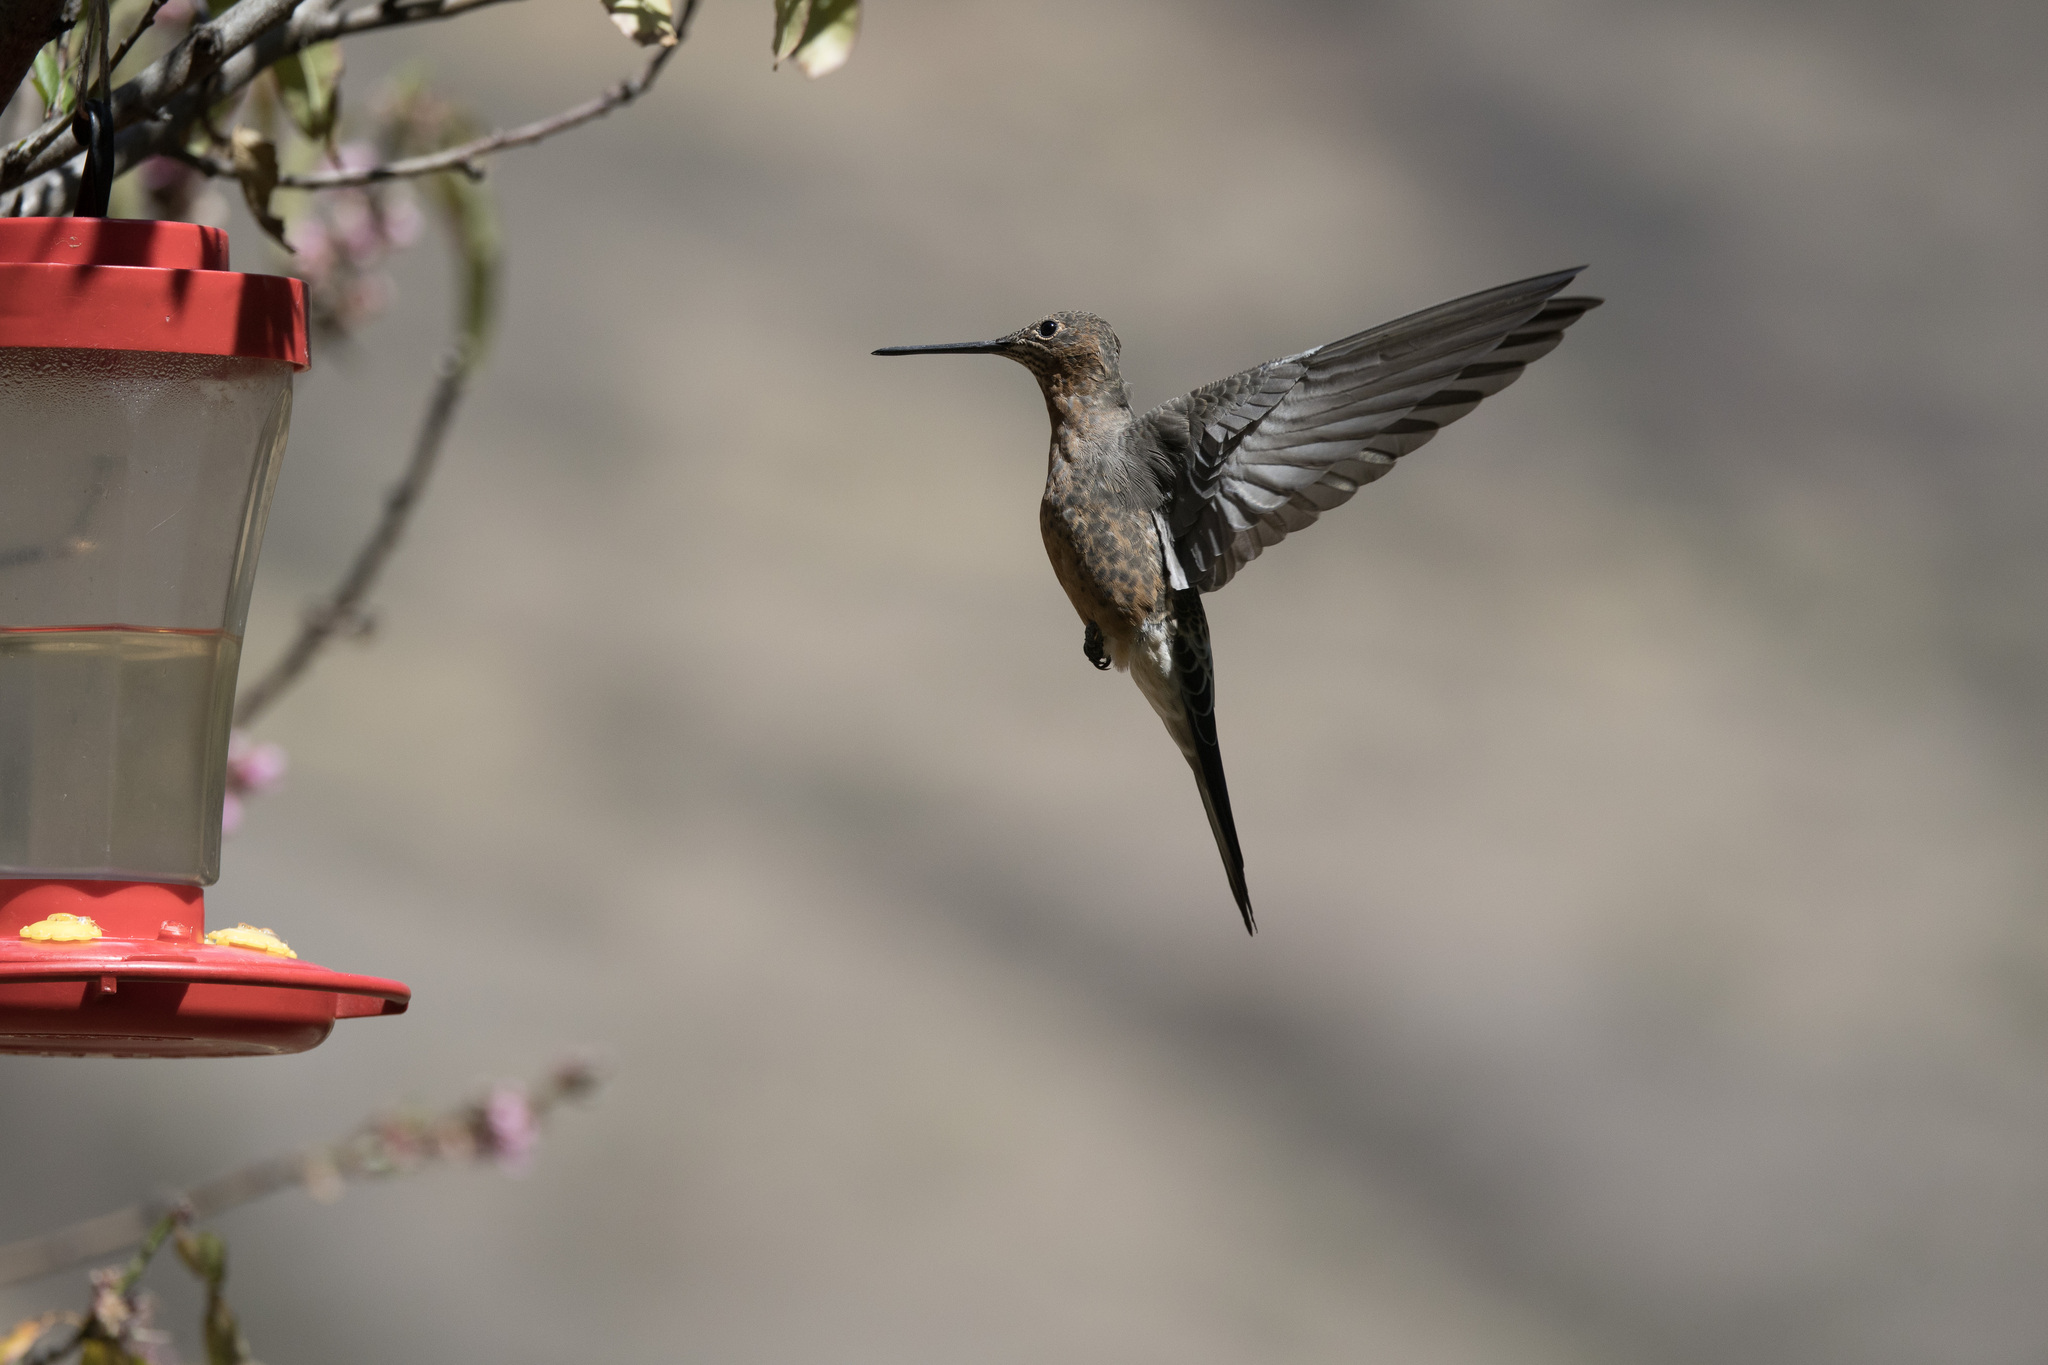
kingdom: Animalia
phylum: Chordata
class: Aves
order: Apodiformes
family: Trochilidae
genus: Patagona
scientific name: Patagona gigas
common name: Giant hummingbird
